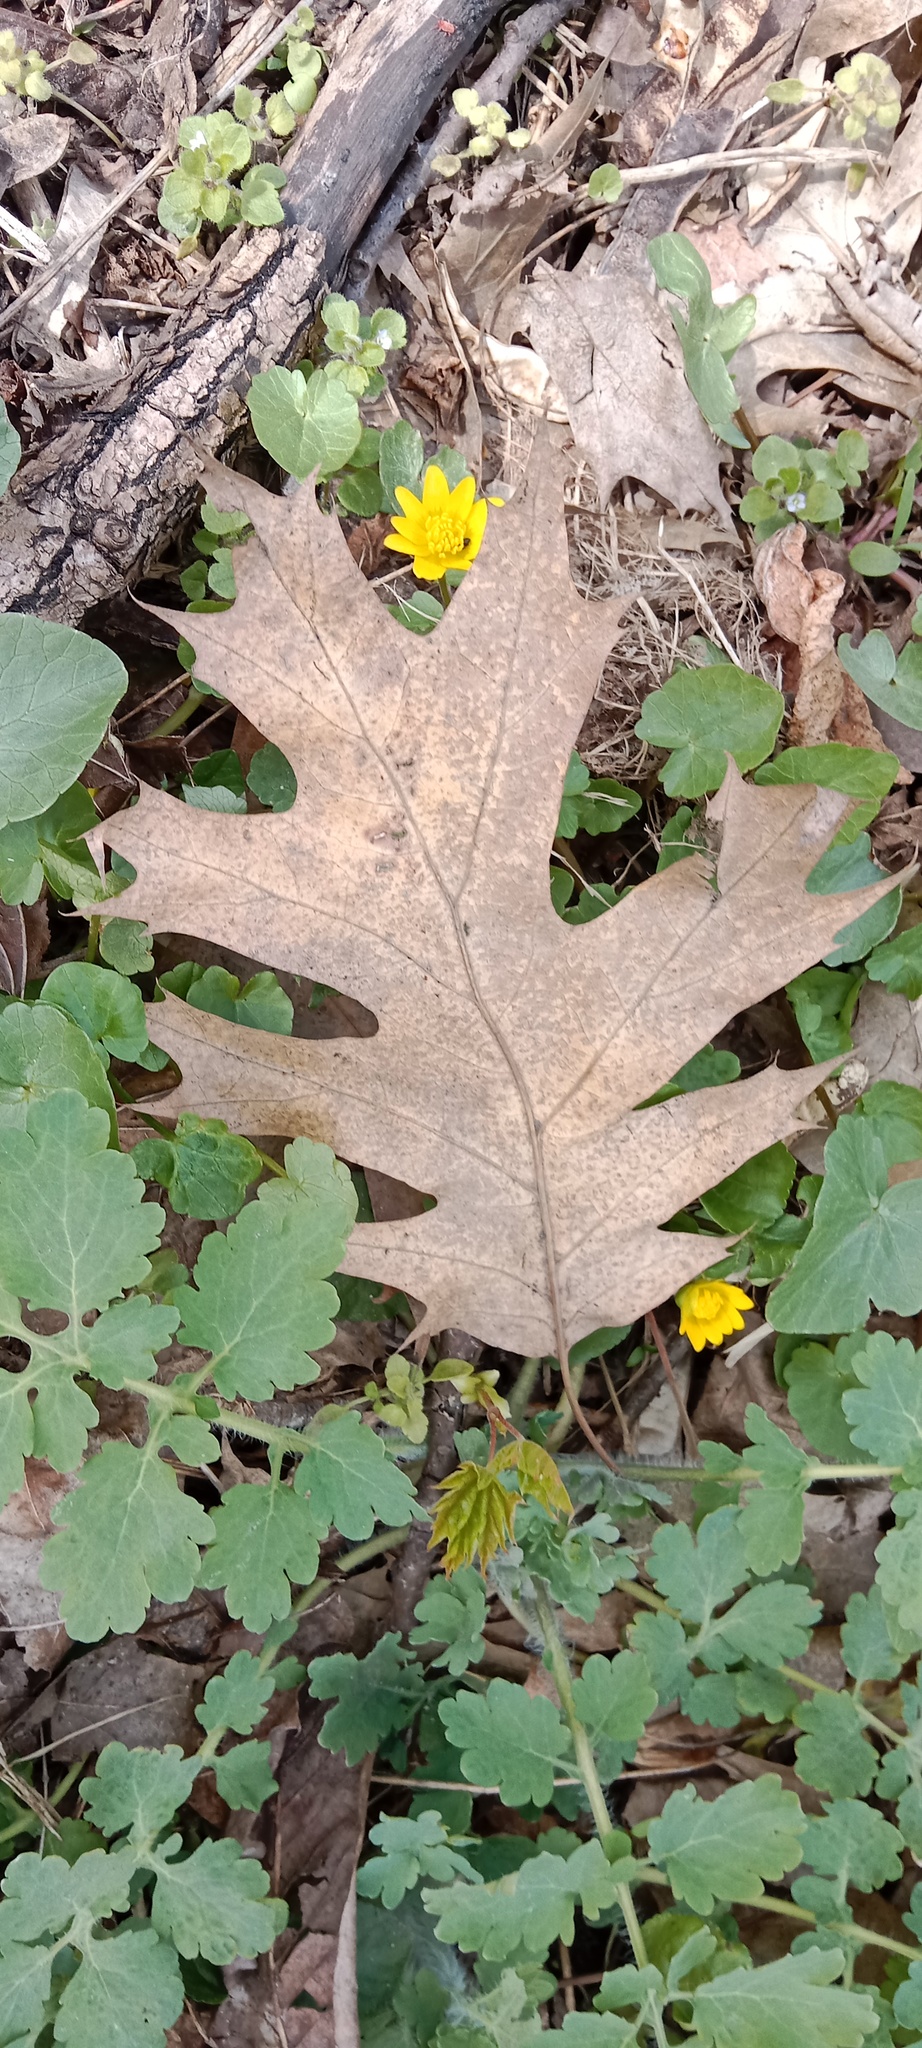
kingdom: Plantae
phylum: Tracheophyta
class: Magnoliopsida
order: Ranunculales
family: Papaveraceae
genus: Chelidonium
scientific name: Chelidonium majus
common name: Greater celandine
